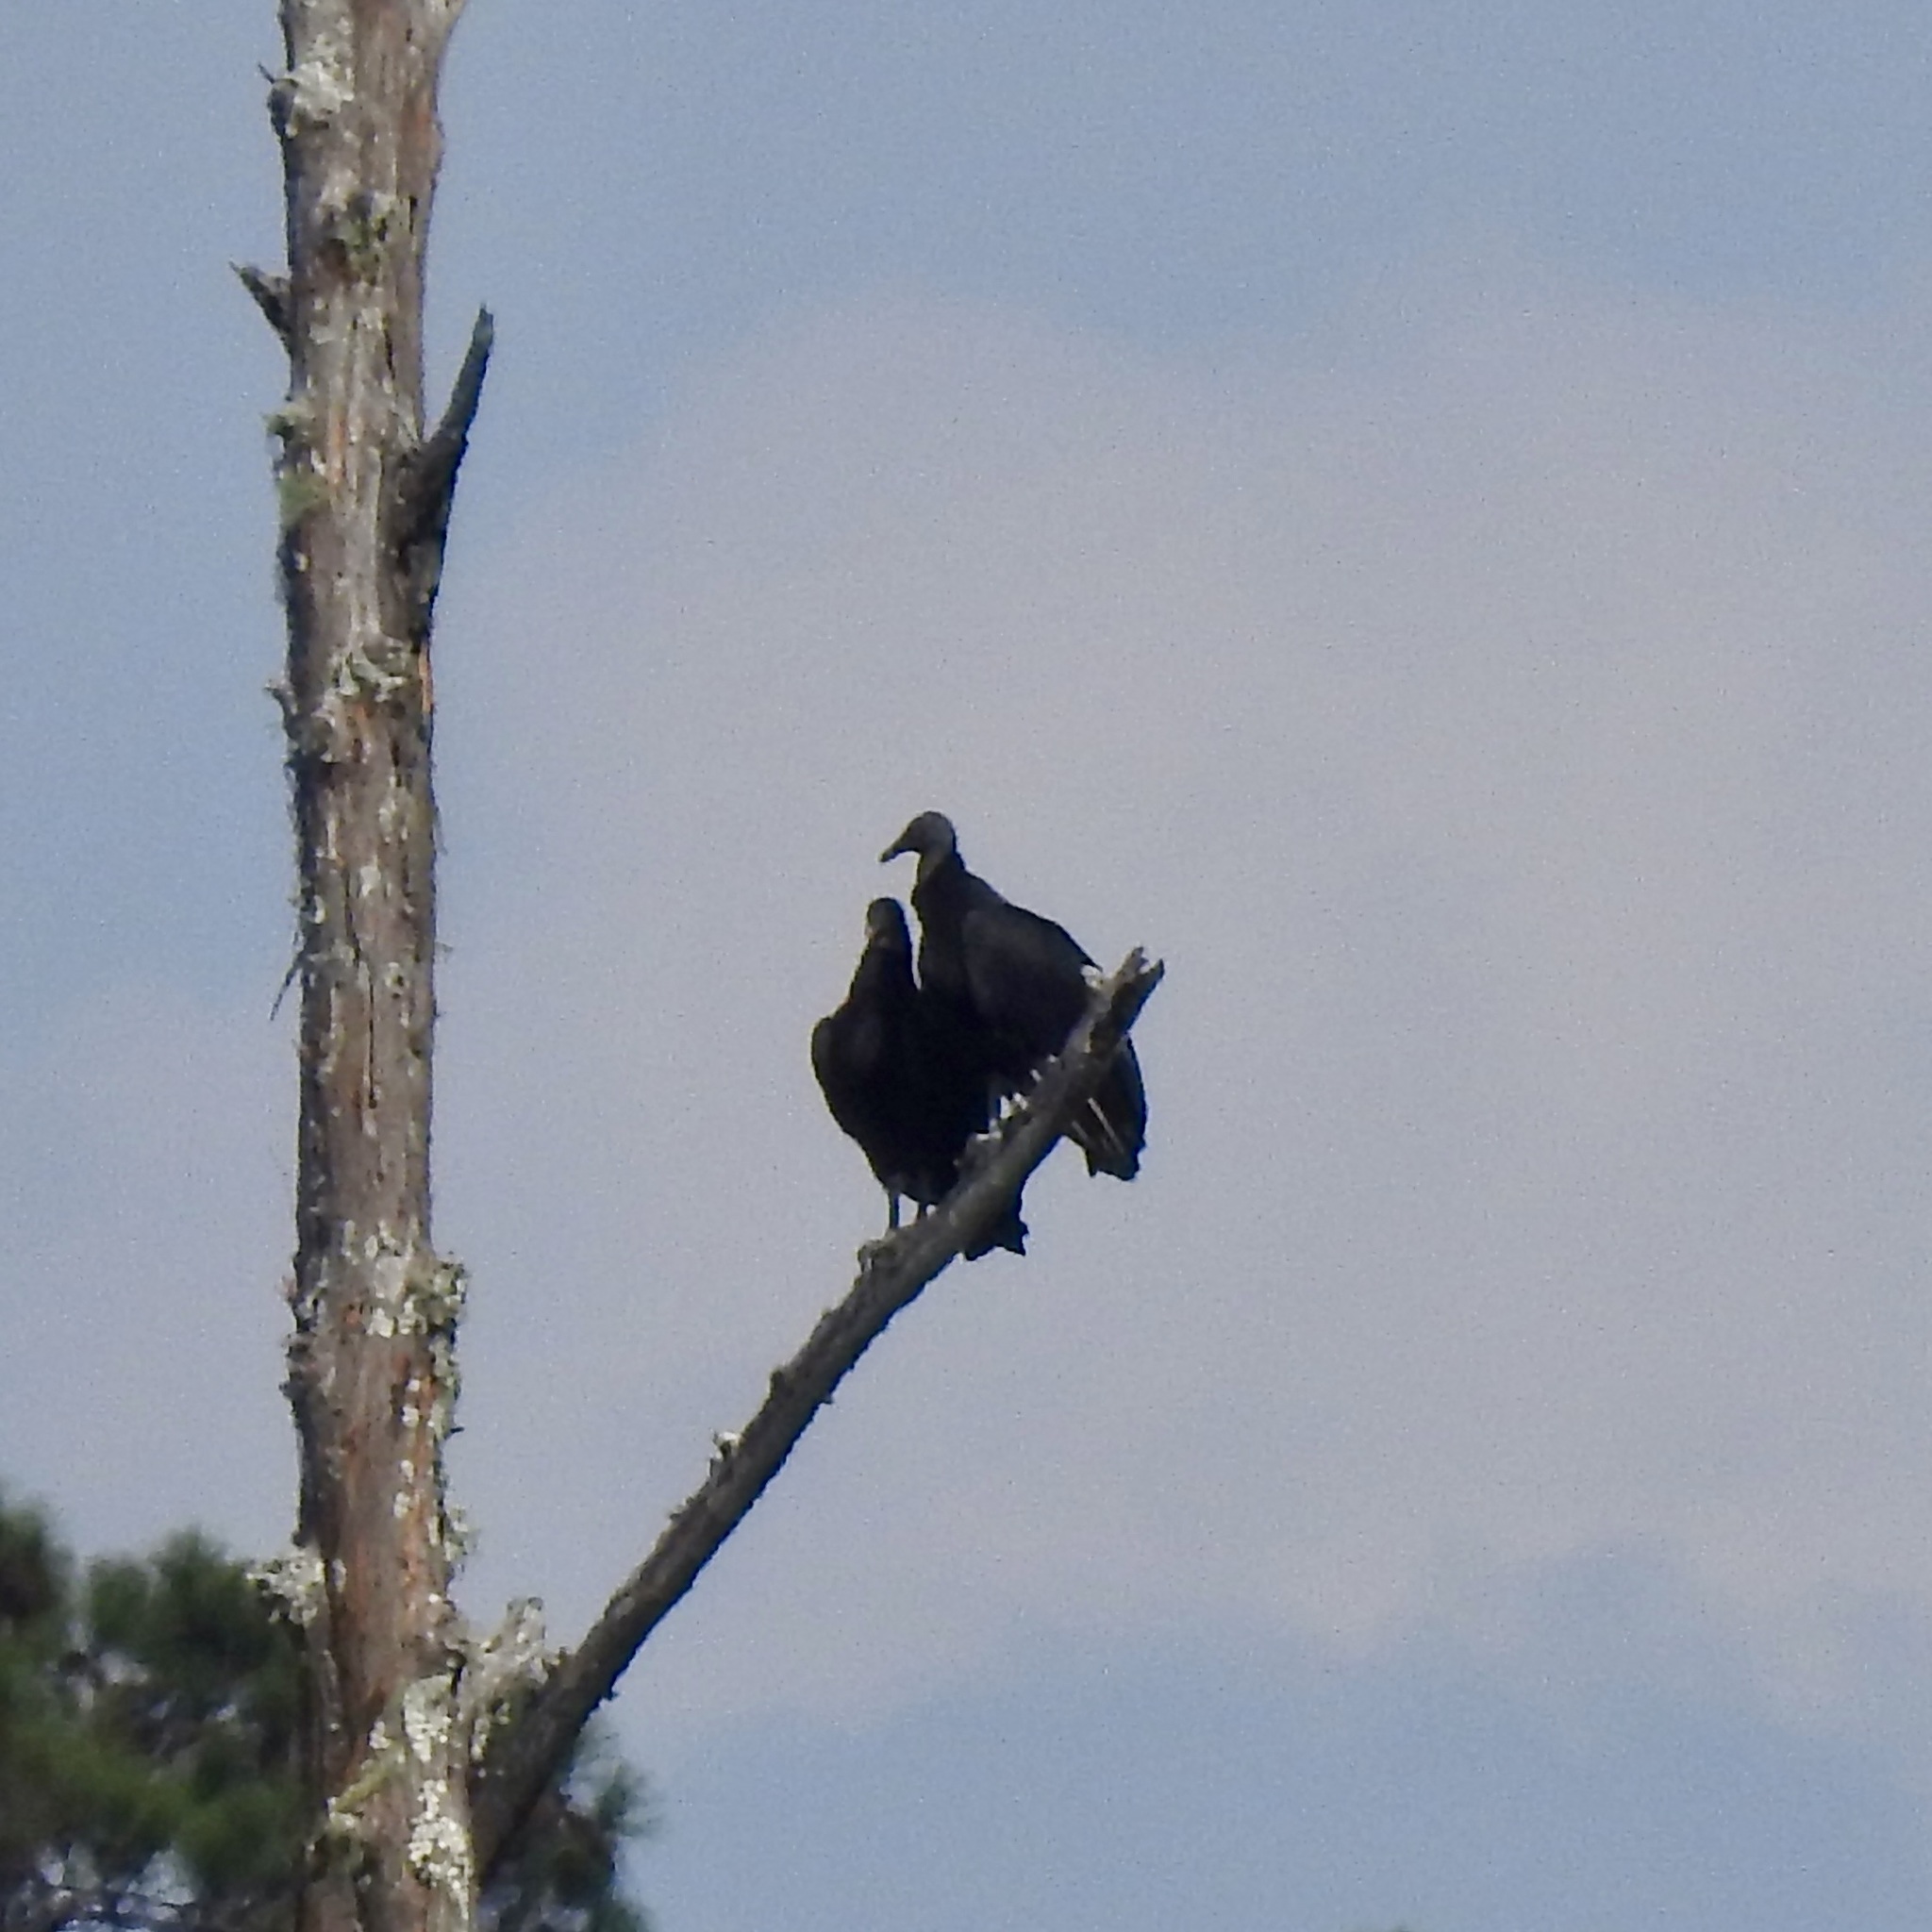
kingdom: Animalia
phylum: Chordata
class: Aves
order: Accipitriformes
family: Cathartidae
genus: Coragyps
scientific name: Coragyps atratus
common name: Black vulture
